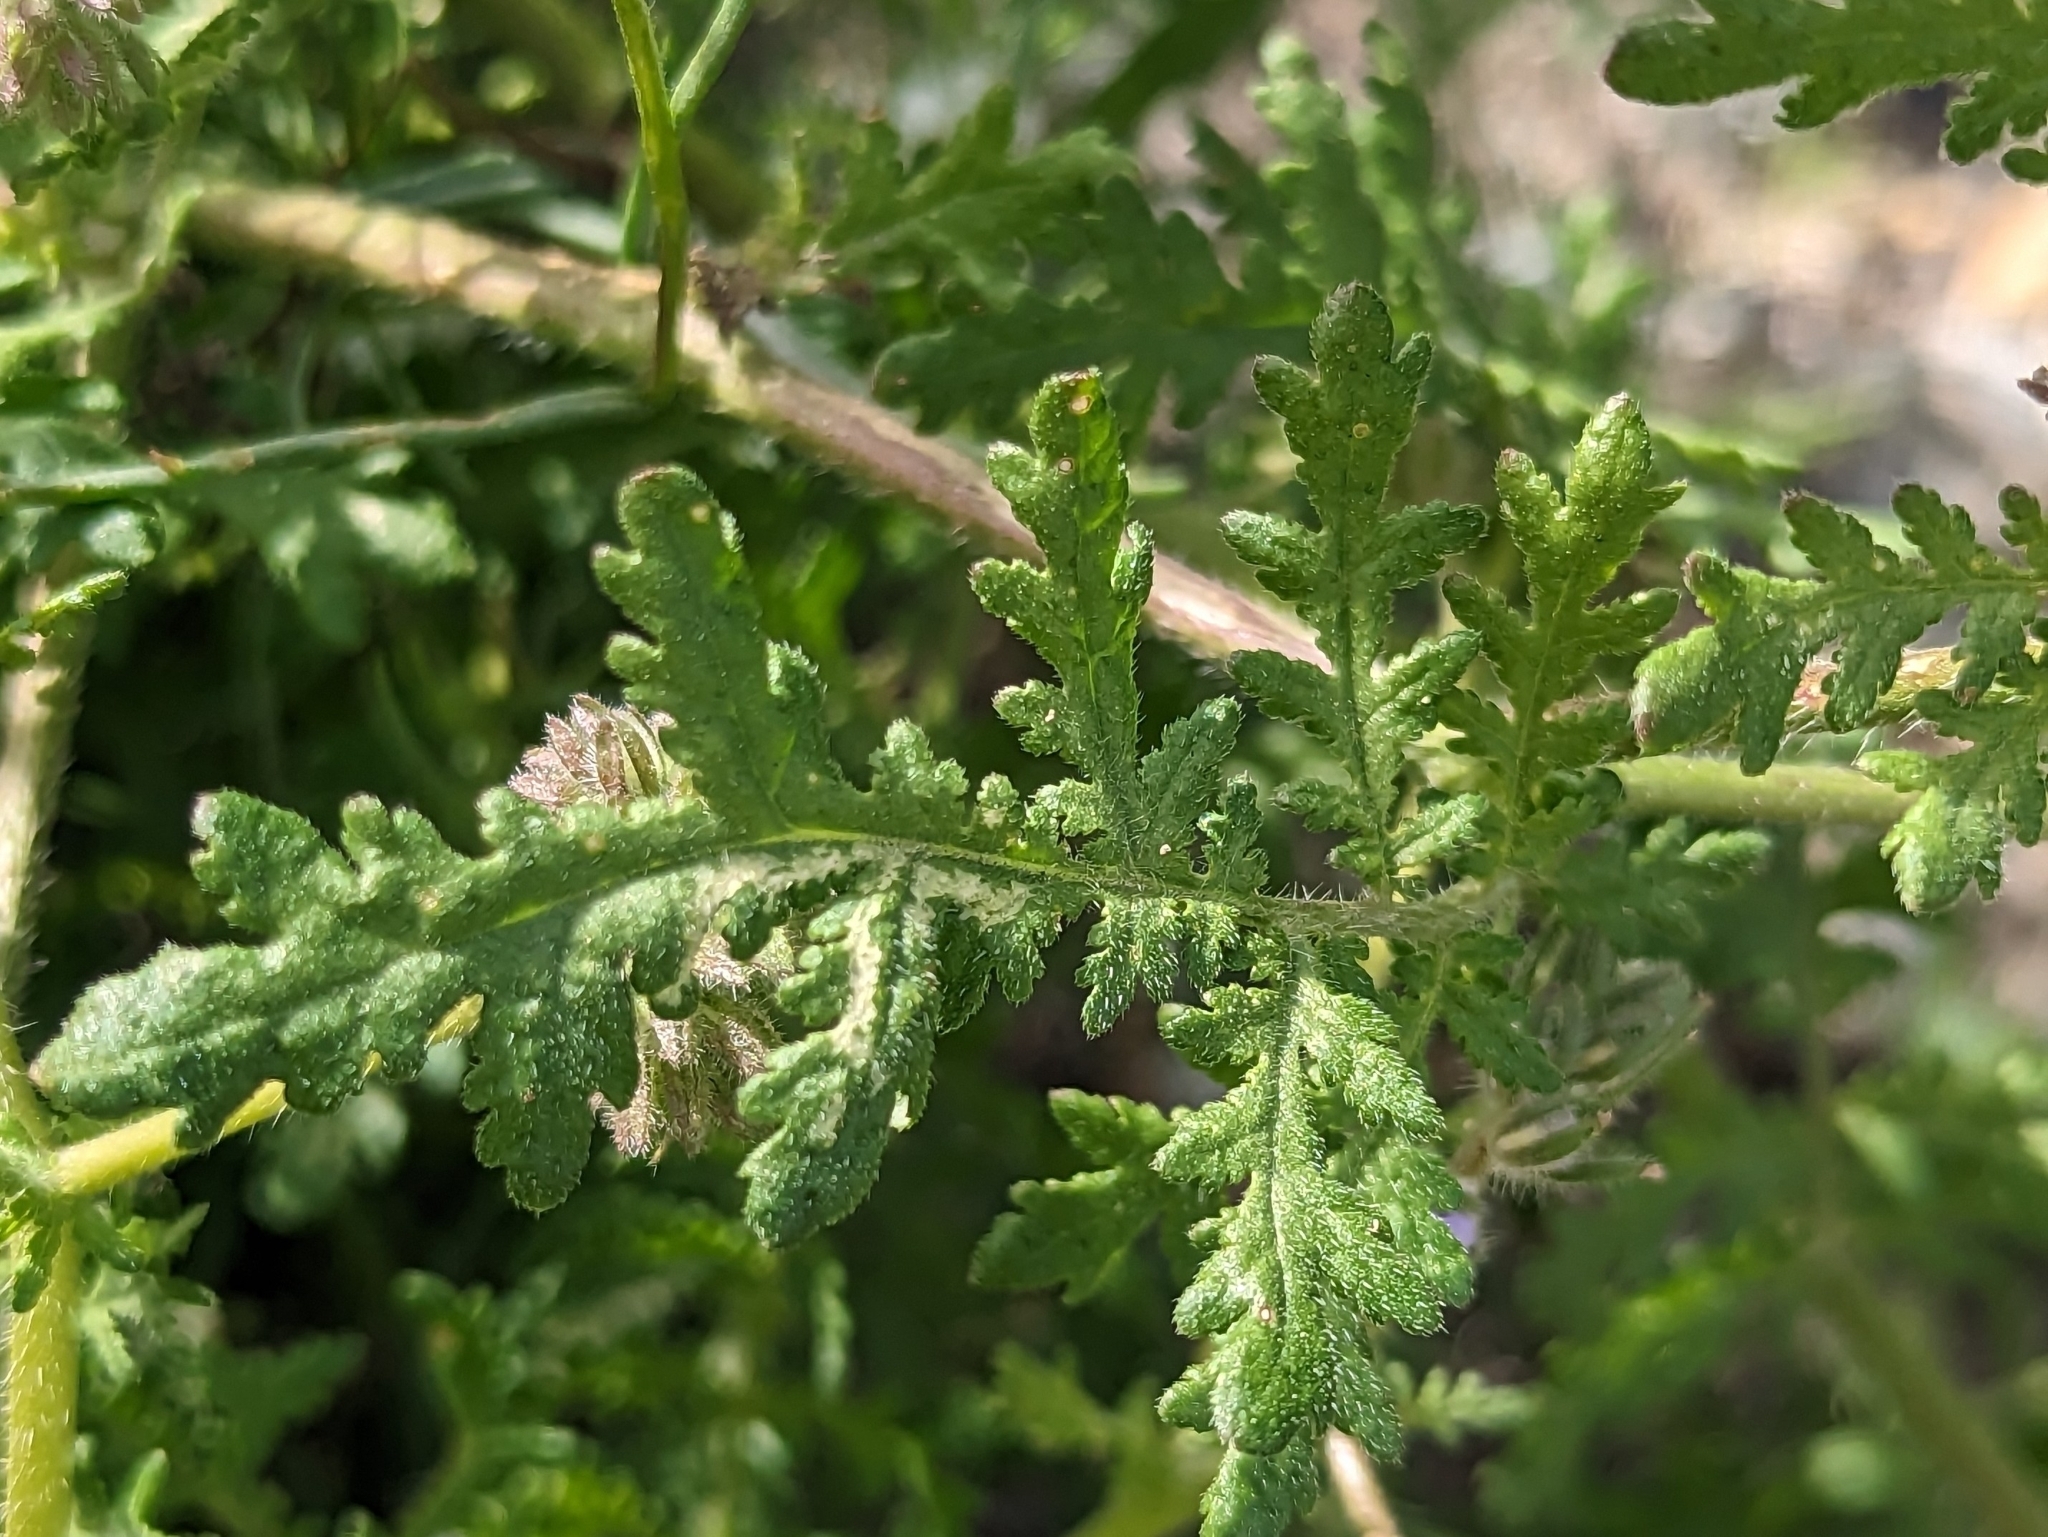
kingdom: Plantae
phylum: Tracheophyta
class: Magnoliopsida
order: Boraginales
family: Hydrophyllaceae
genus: Phacelia
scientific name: Phacelia distans
